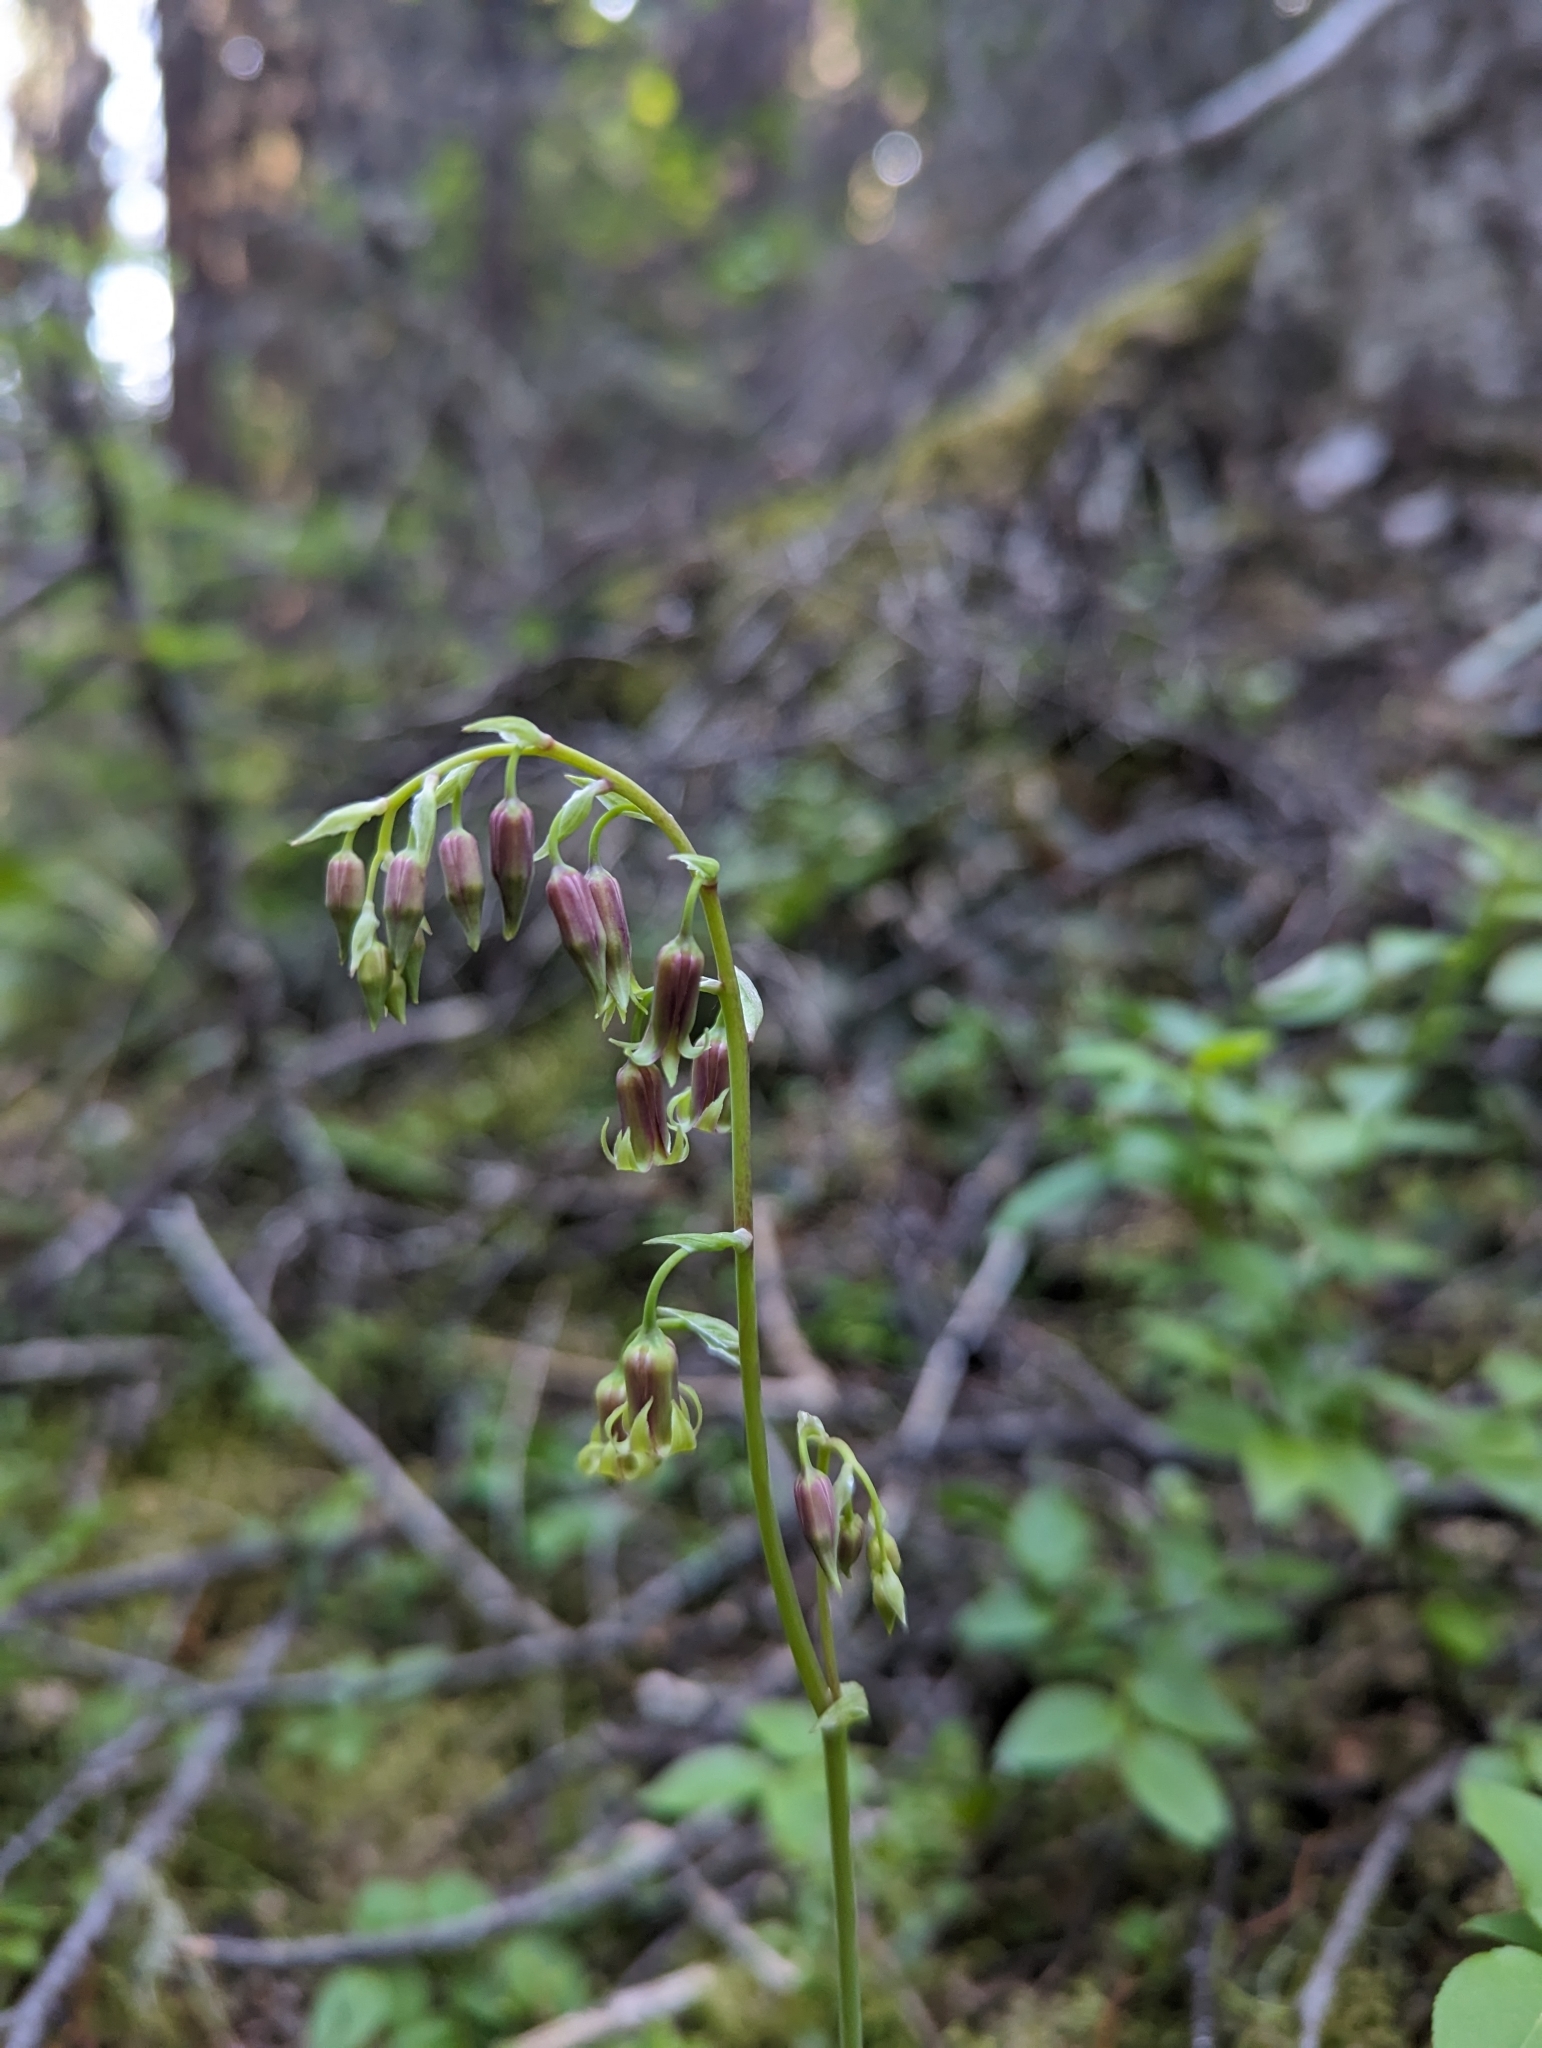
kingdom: Plantae
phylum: Tracheophyta
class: Liliopsida
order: Liliales
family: Melanthiaceae
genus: Anticlea
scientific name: Anticlea occidentalis
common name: Bronze-bells
